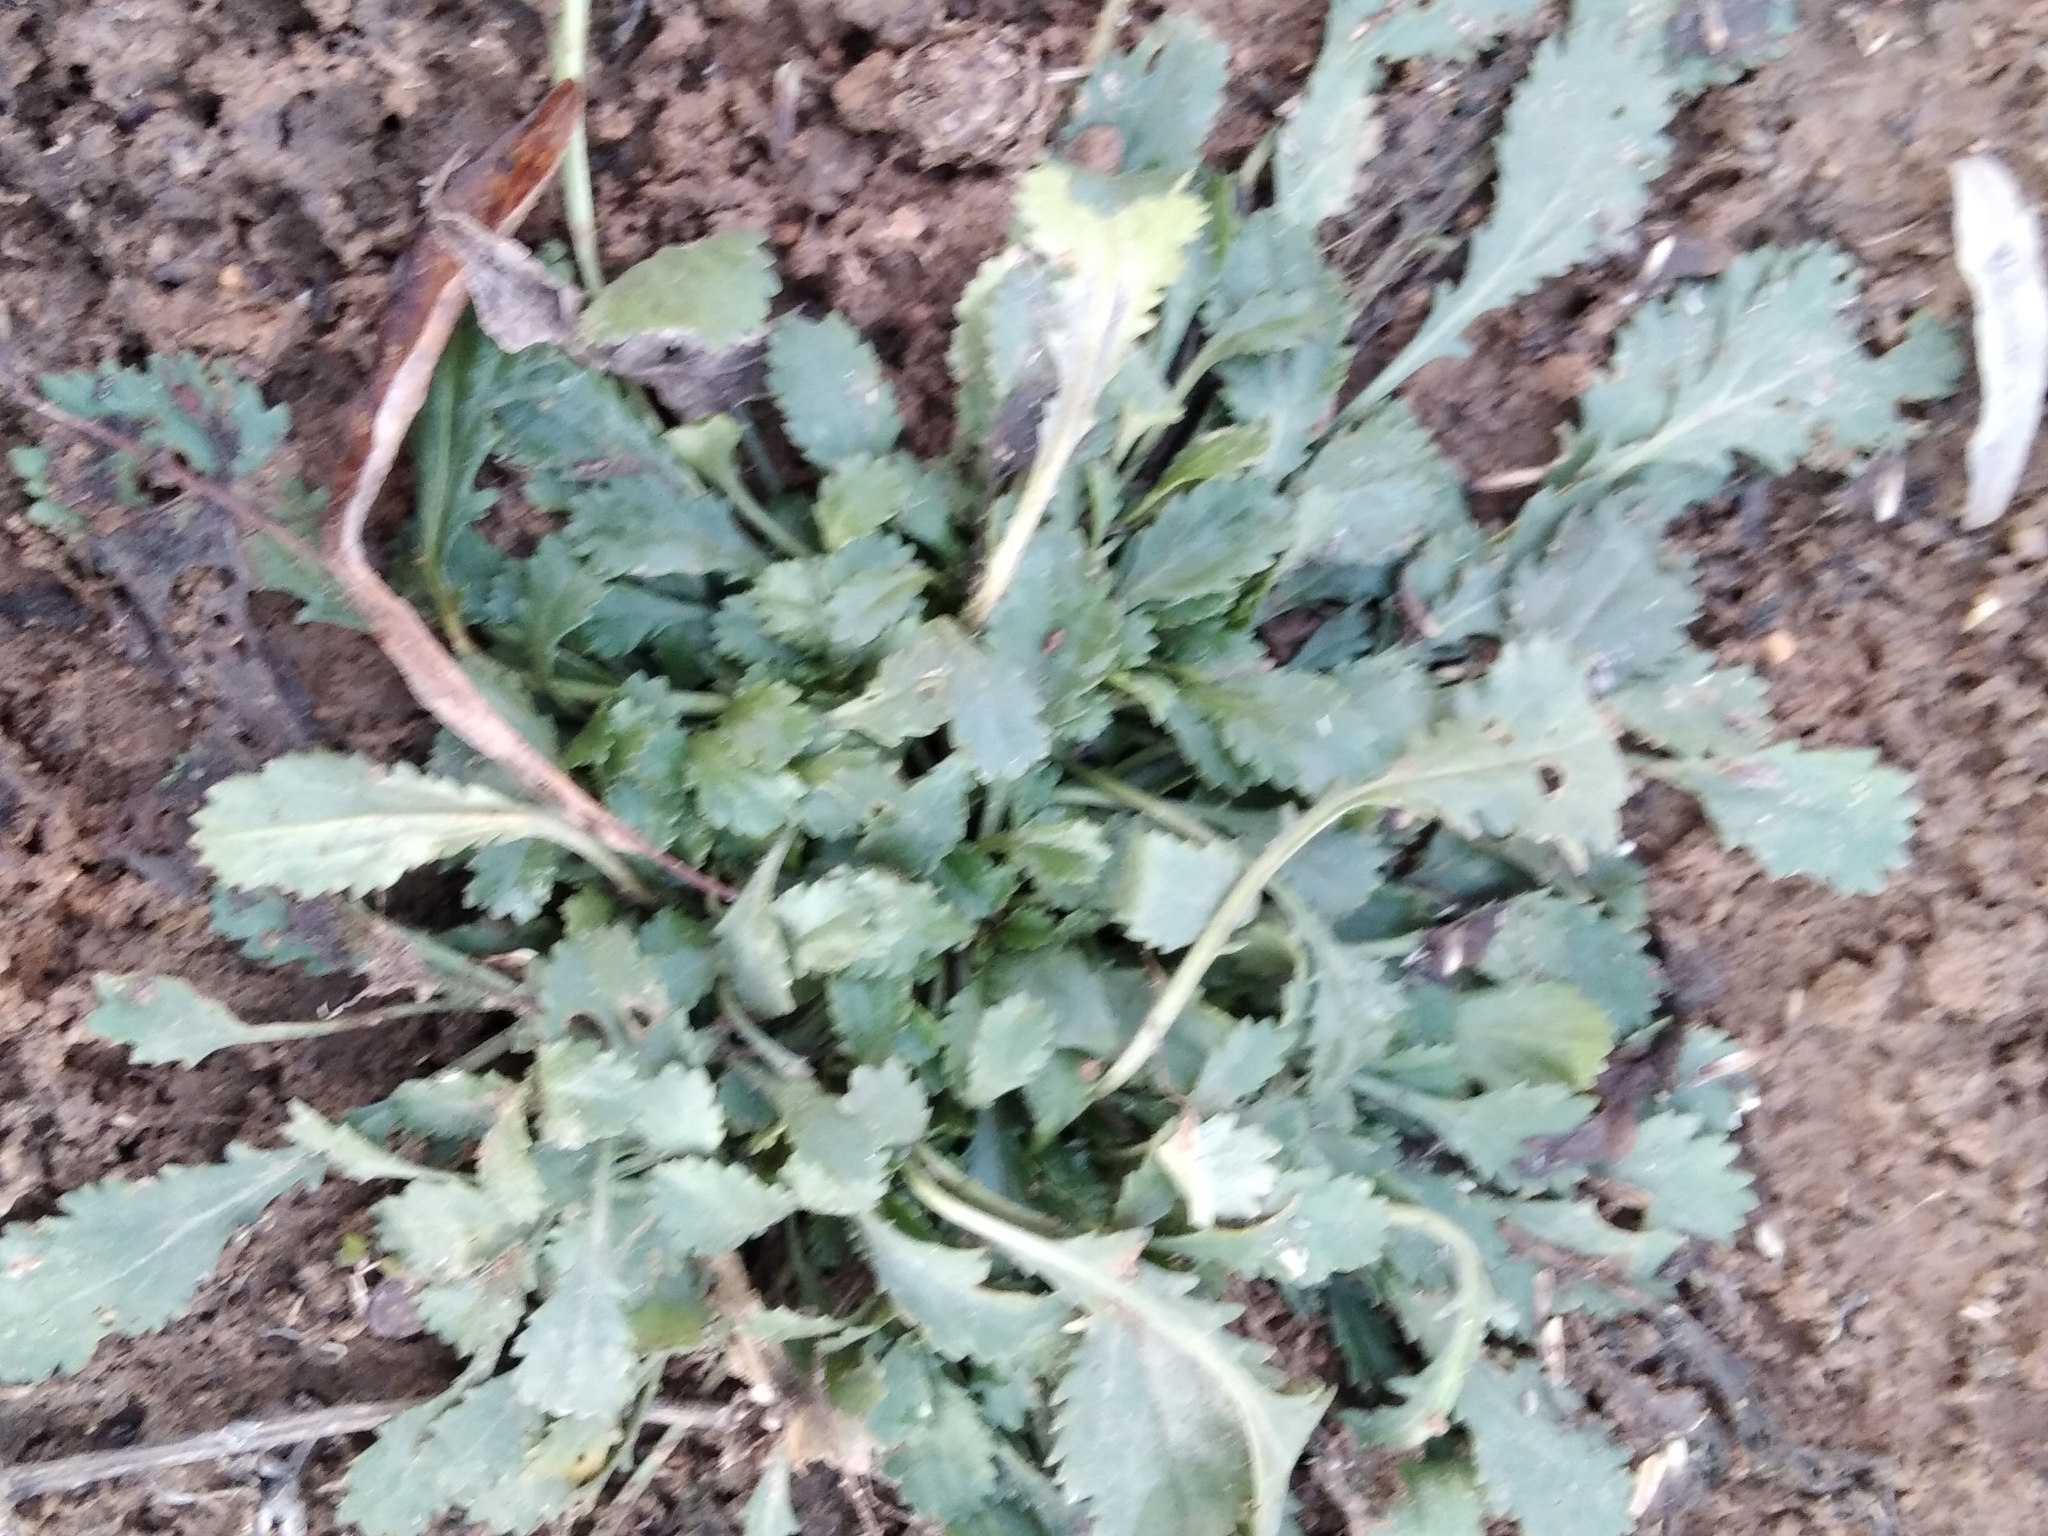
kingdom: Plantae
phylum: Tracheophyta
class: Magnoliopsida
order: Asterales
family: Asteraceae
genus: Leucanthemum
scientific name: Leucanthemum vulgare
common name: Oxeye daisy
